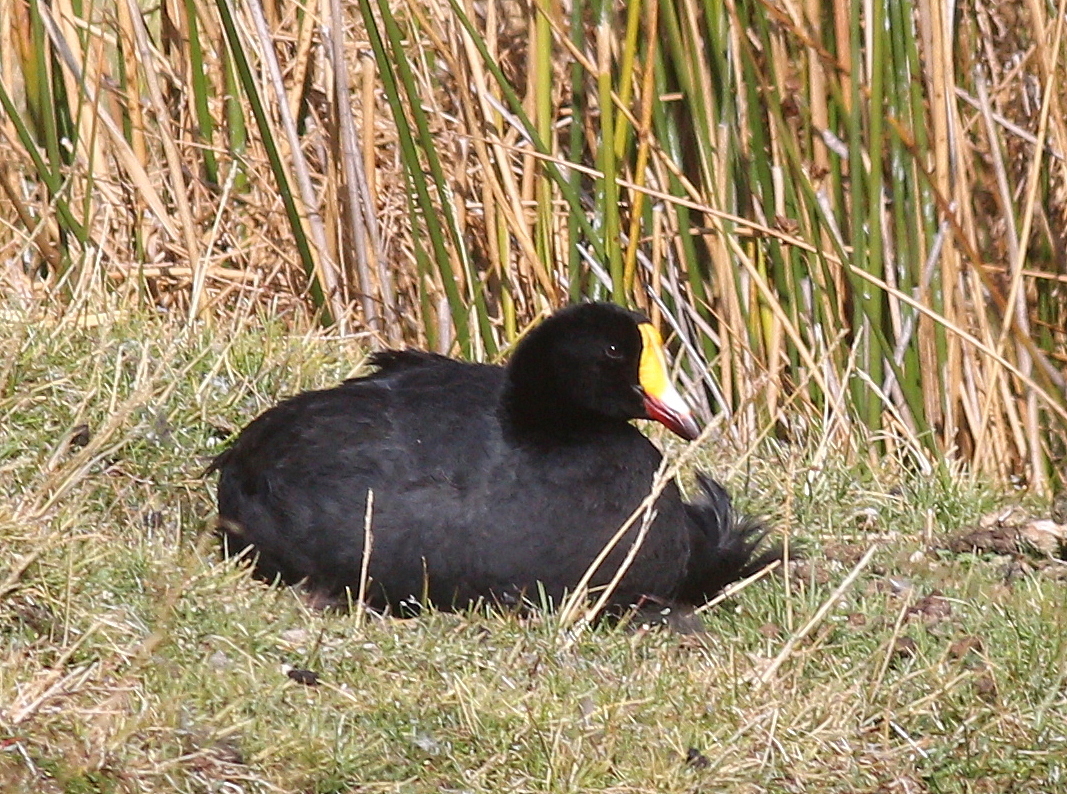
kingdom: Animalia
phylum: Chordata
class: Aves
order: Gruiformes
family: Rallidae
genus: Fulica
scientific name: Fulica gigantea
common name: Giant coot
